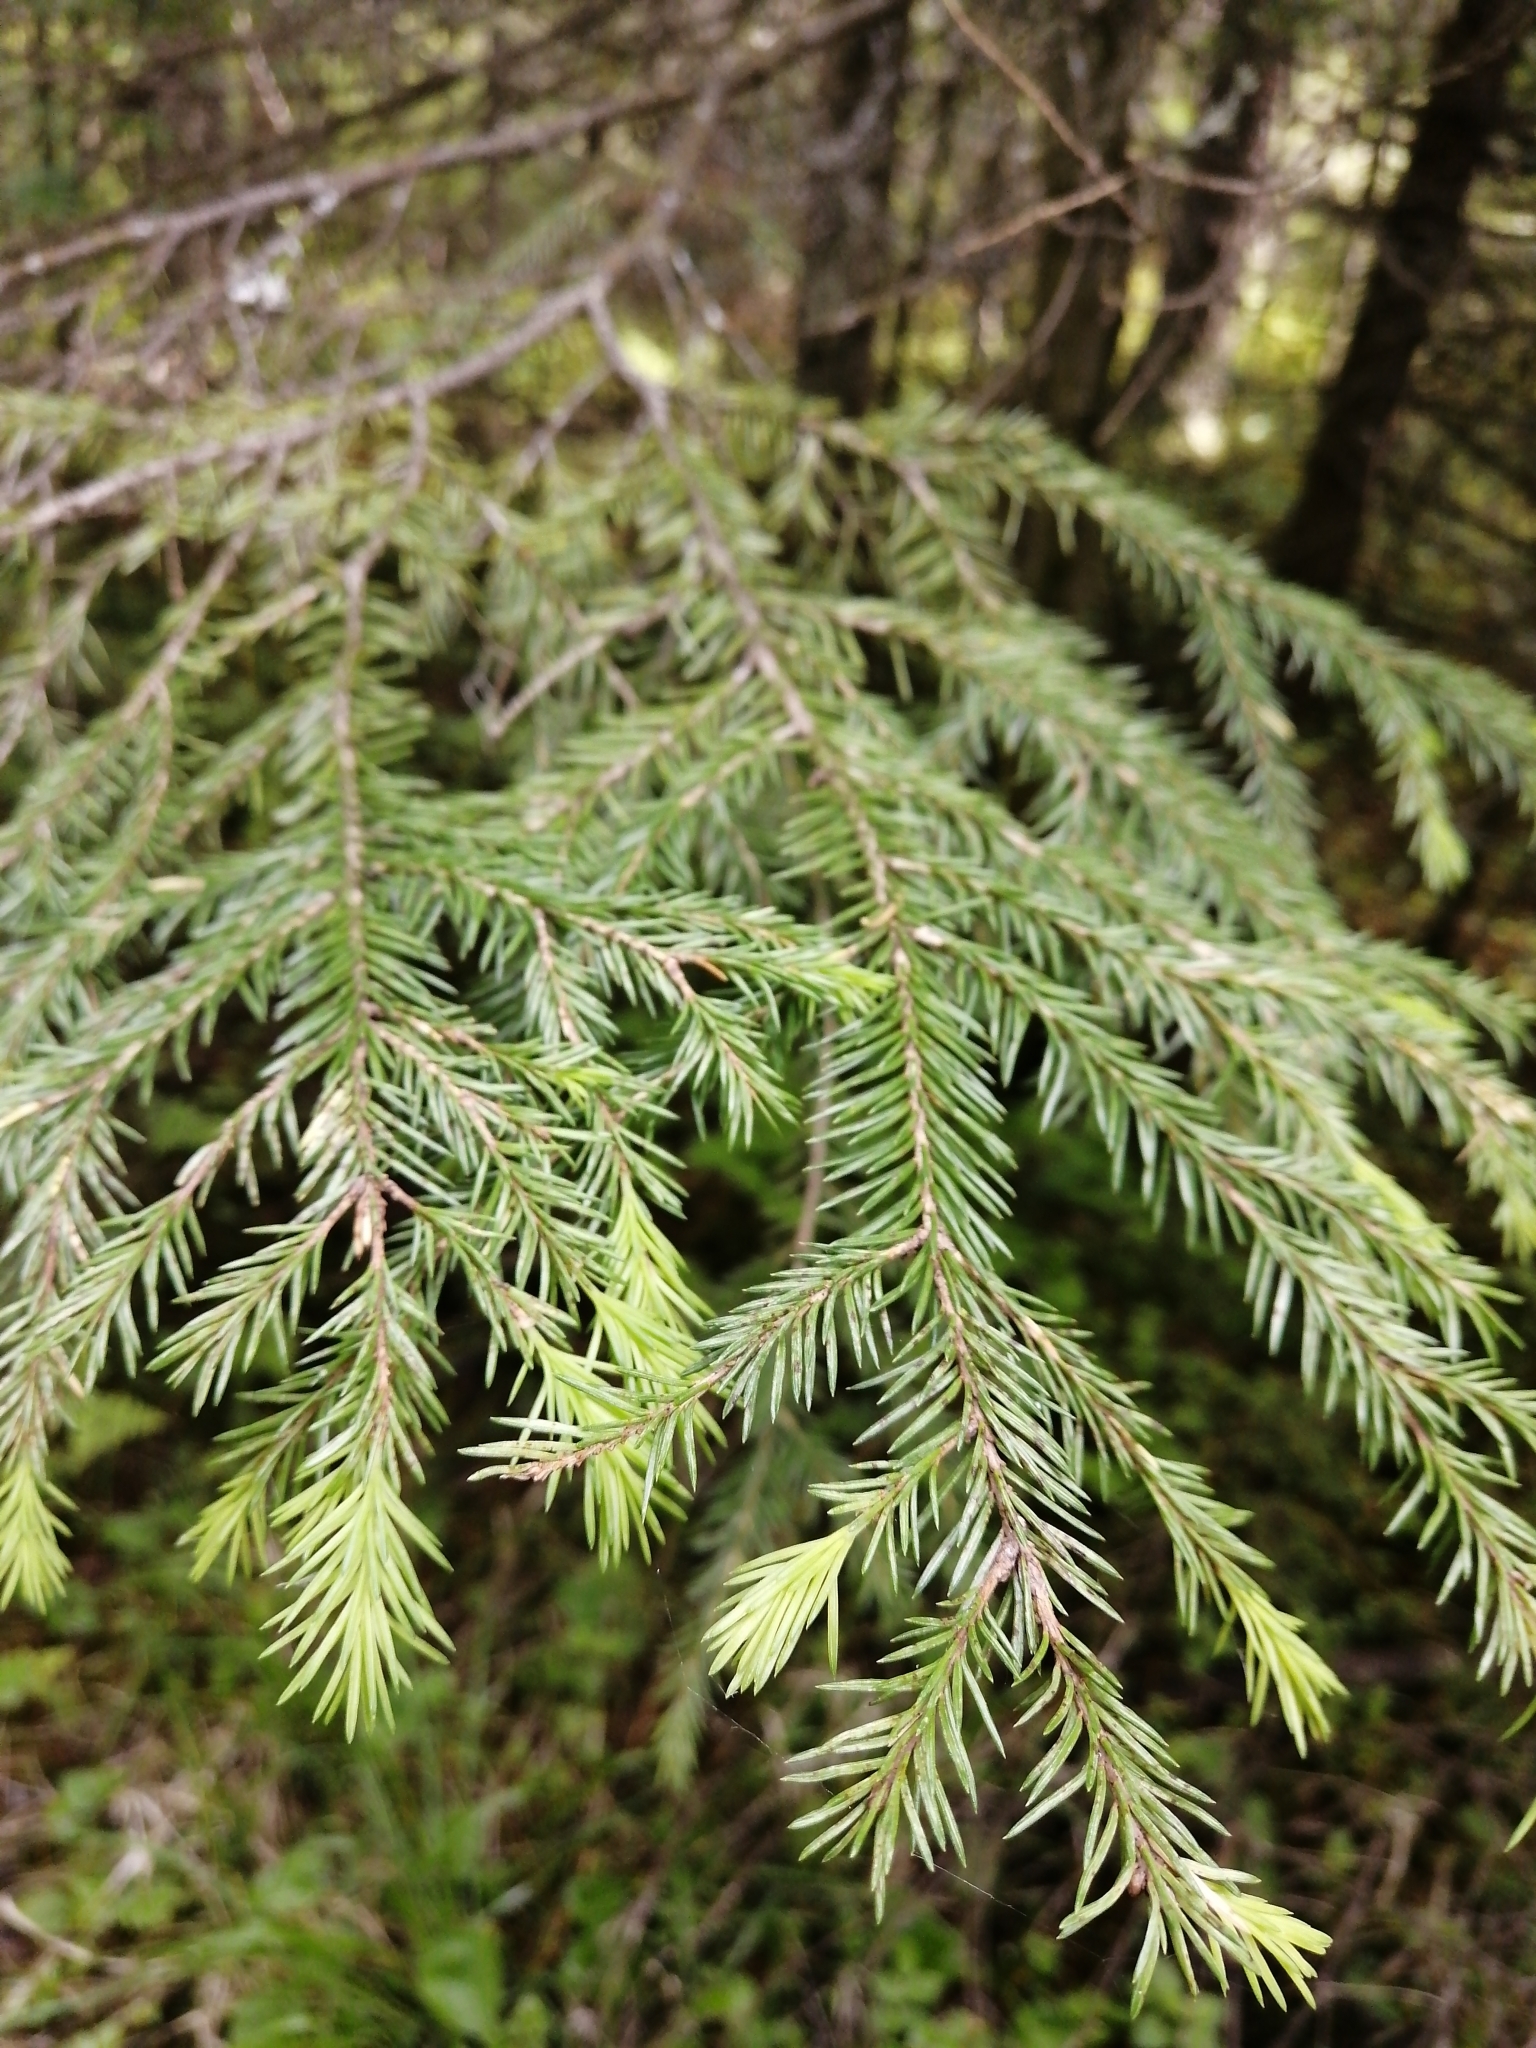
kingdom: Plantae
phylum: Tracheophyta
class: Pinopsida
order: Pinales
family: Pinaceae
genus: Picea
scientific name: Picea obovata
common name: Siberian spruce
